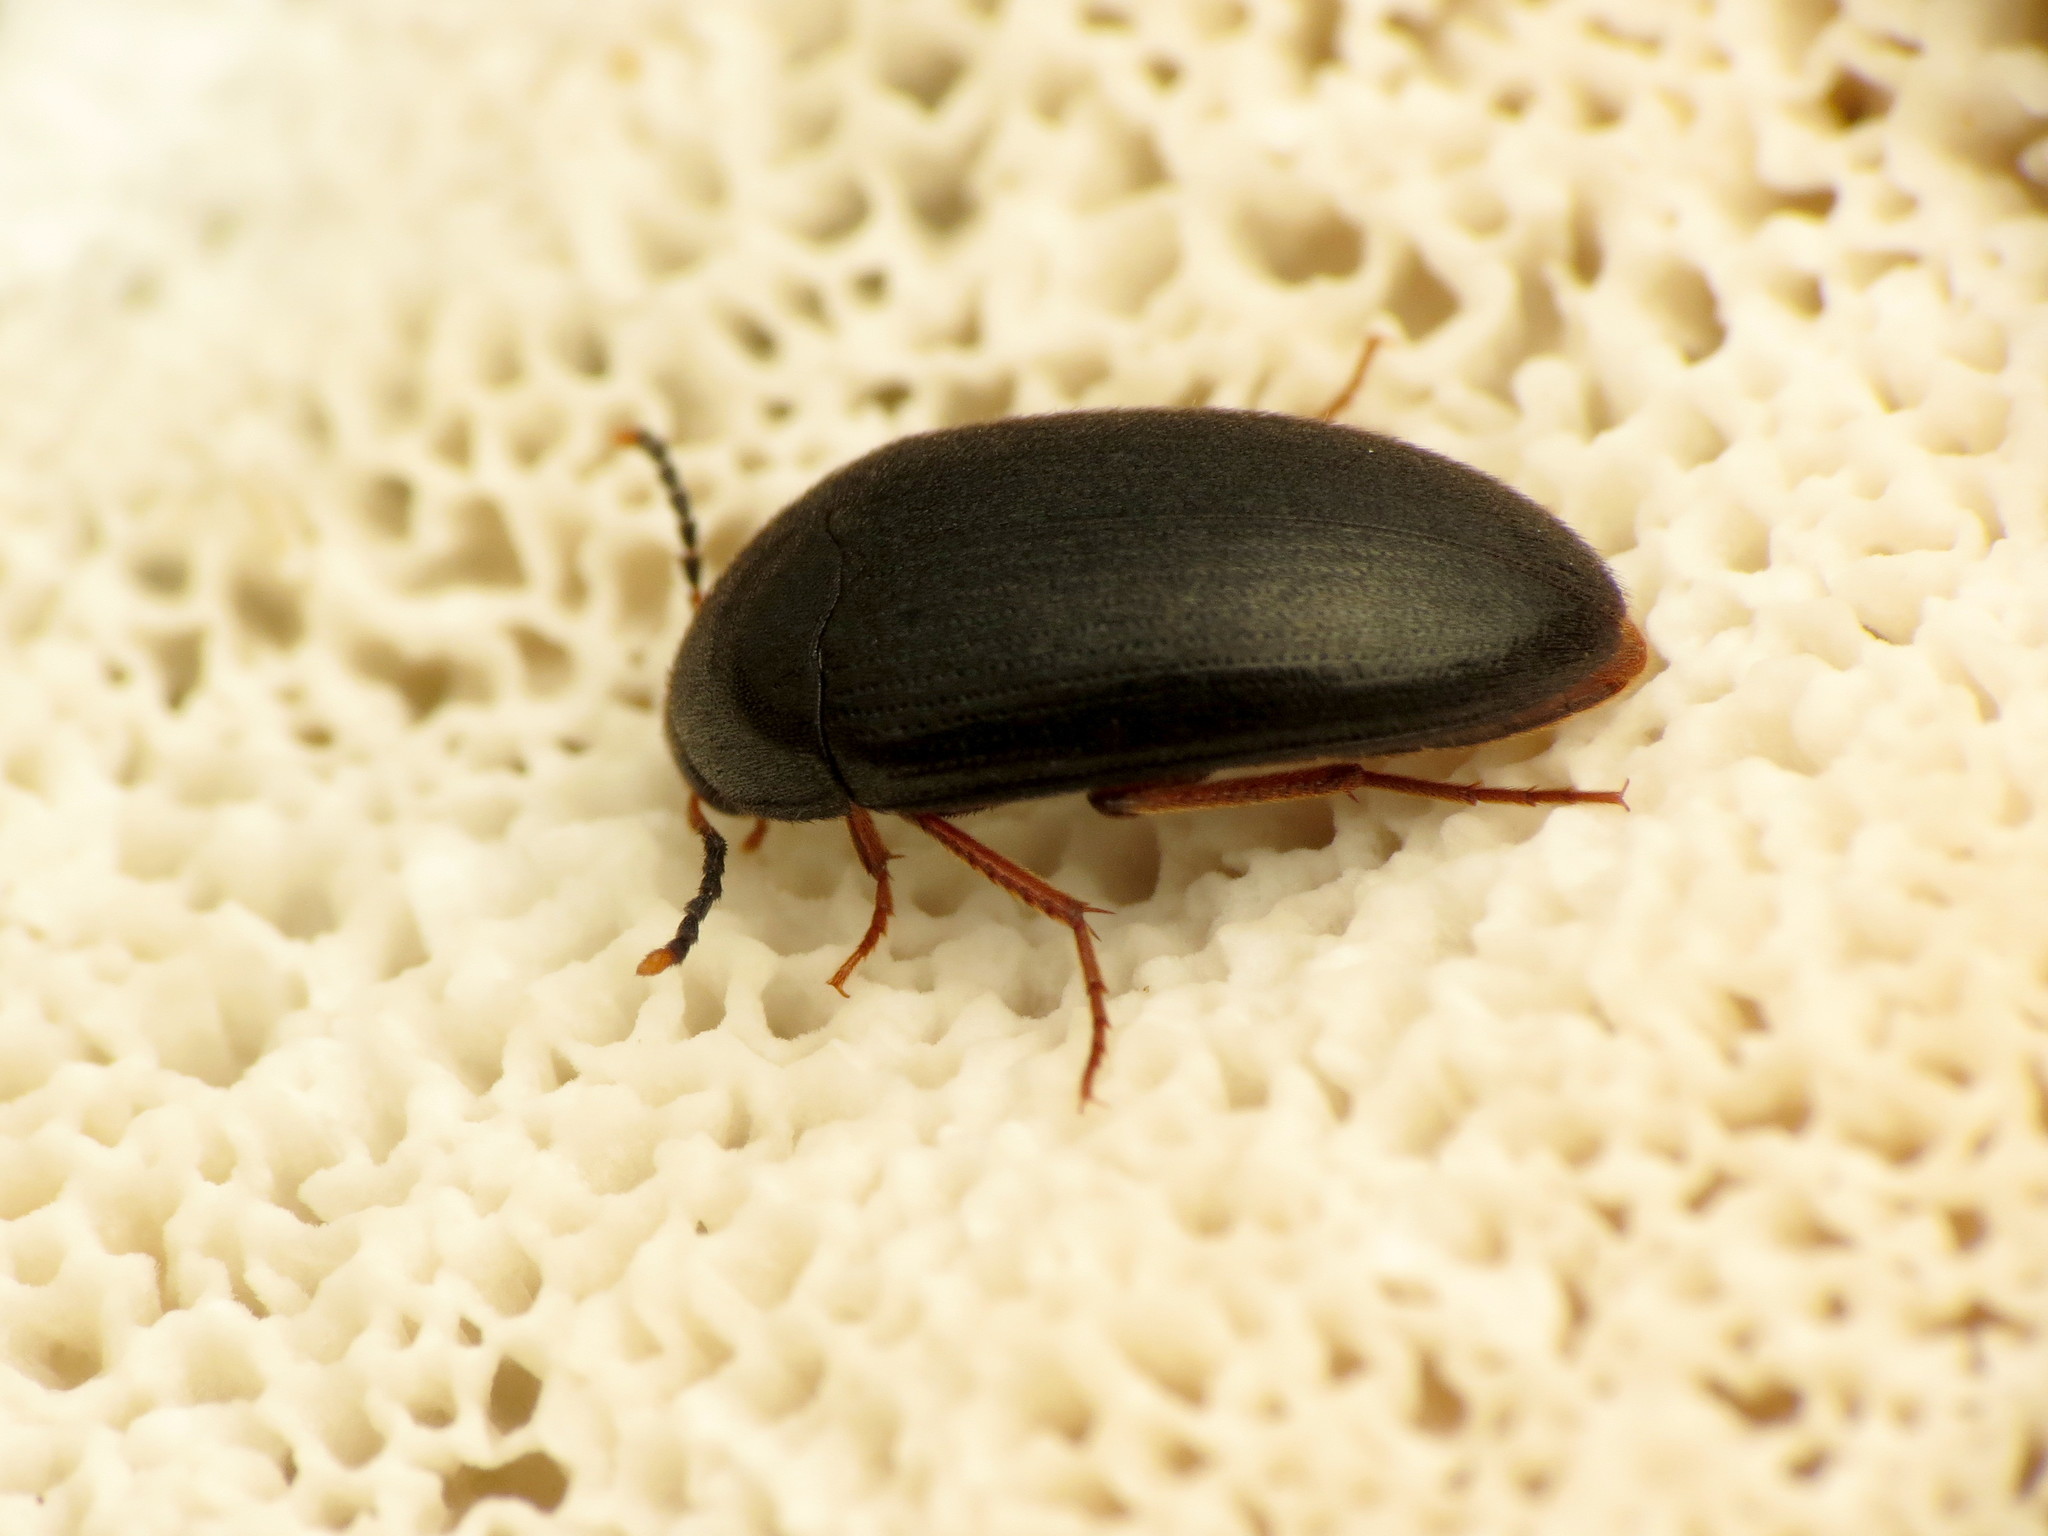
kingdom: Animalia
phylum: Arthropoda
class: Insecta
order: Coleoptera
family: Tetratomidae
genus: Eustrophopsis
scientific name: Eustrophopsis bicolor
